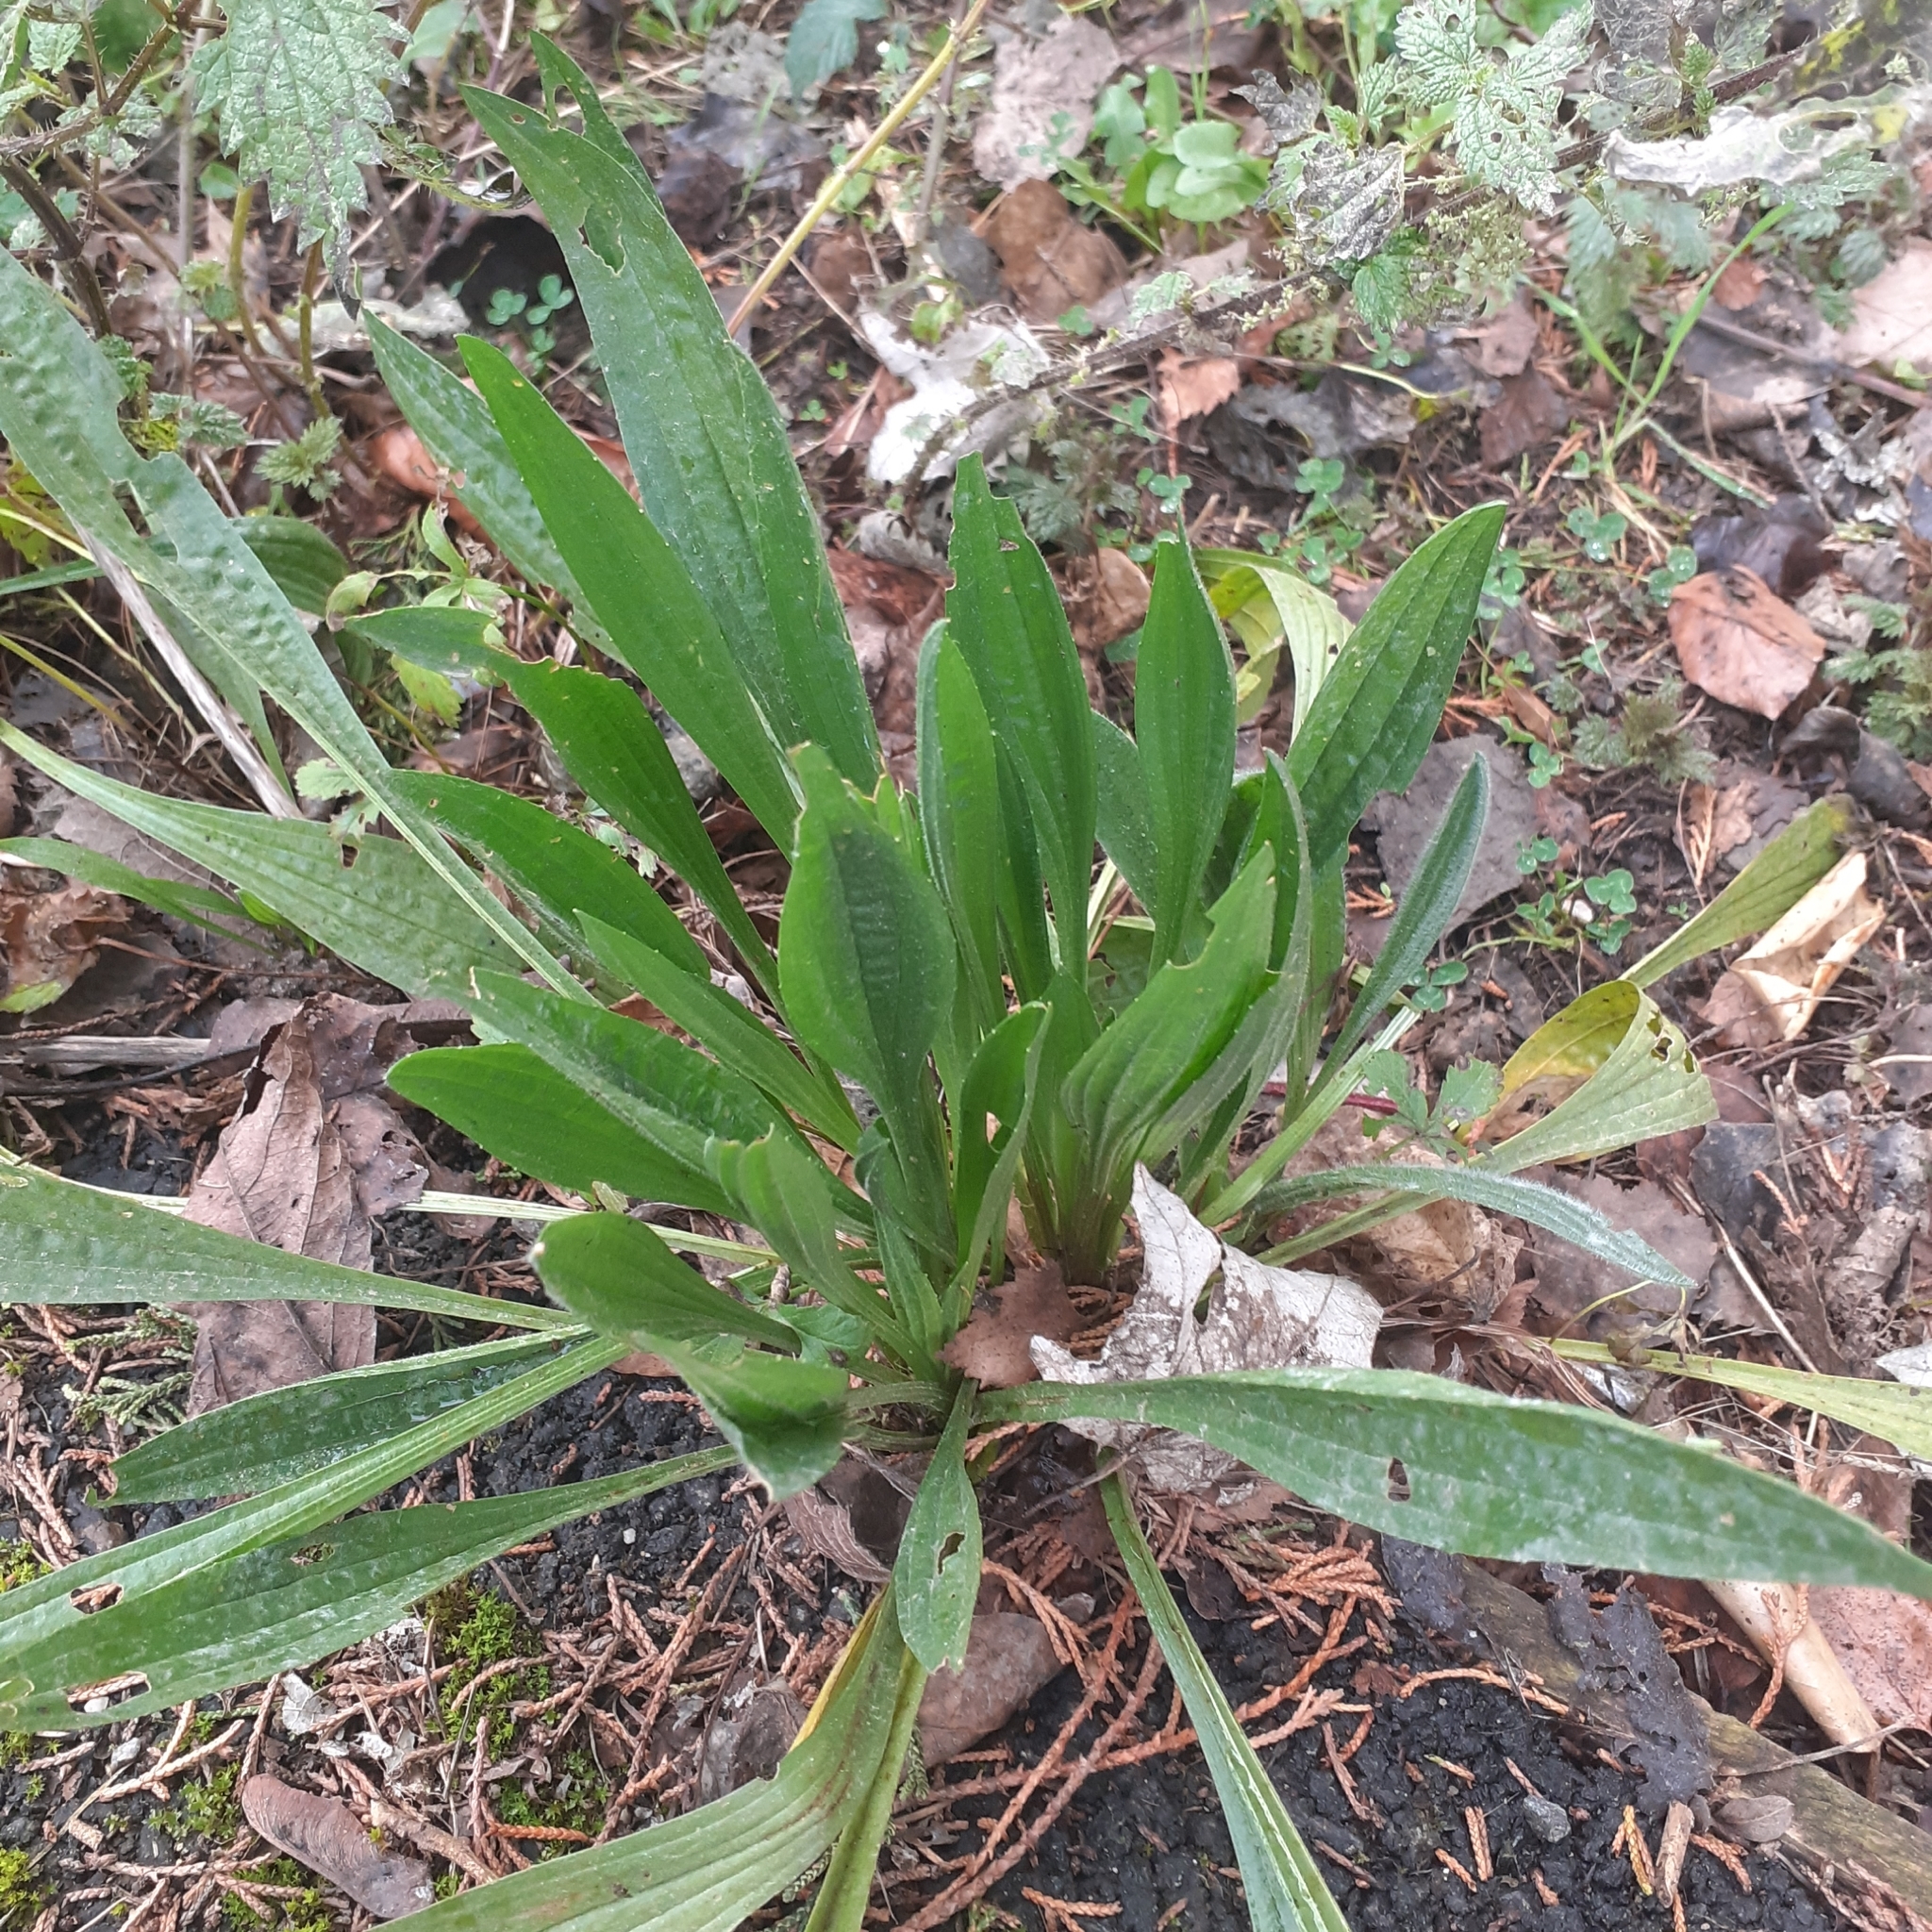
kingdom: Plantae
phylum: Tracheophyta
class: Magnoliopsida
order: Lamiales
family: Plantaginaceae
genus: Plantago
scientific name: Plantago lanceolata
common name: Ribwort plantain
